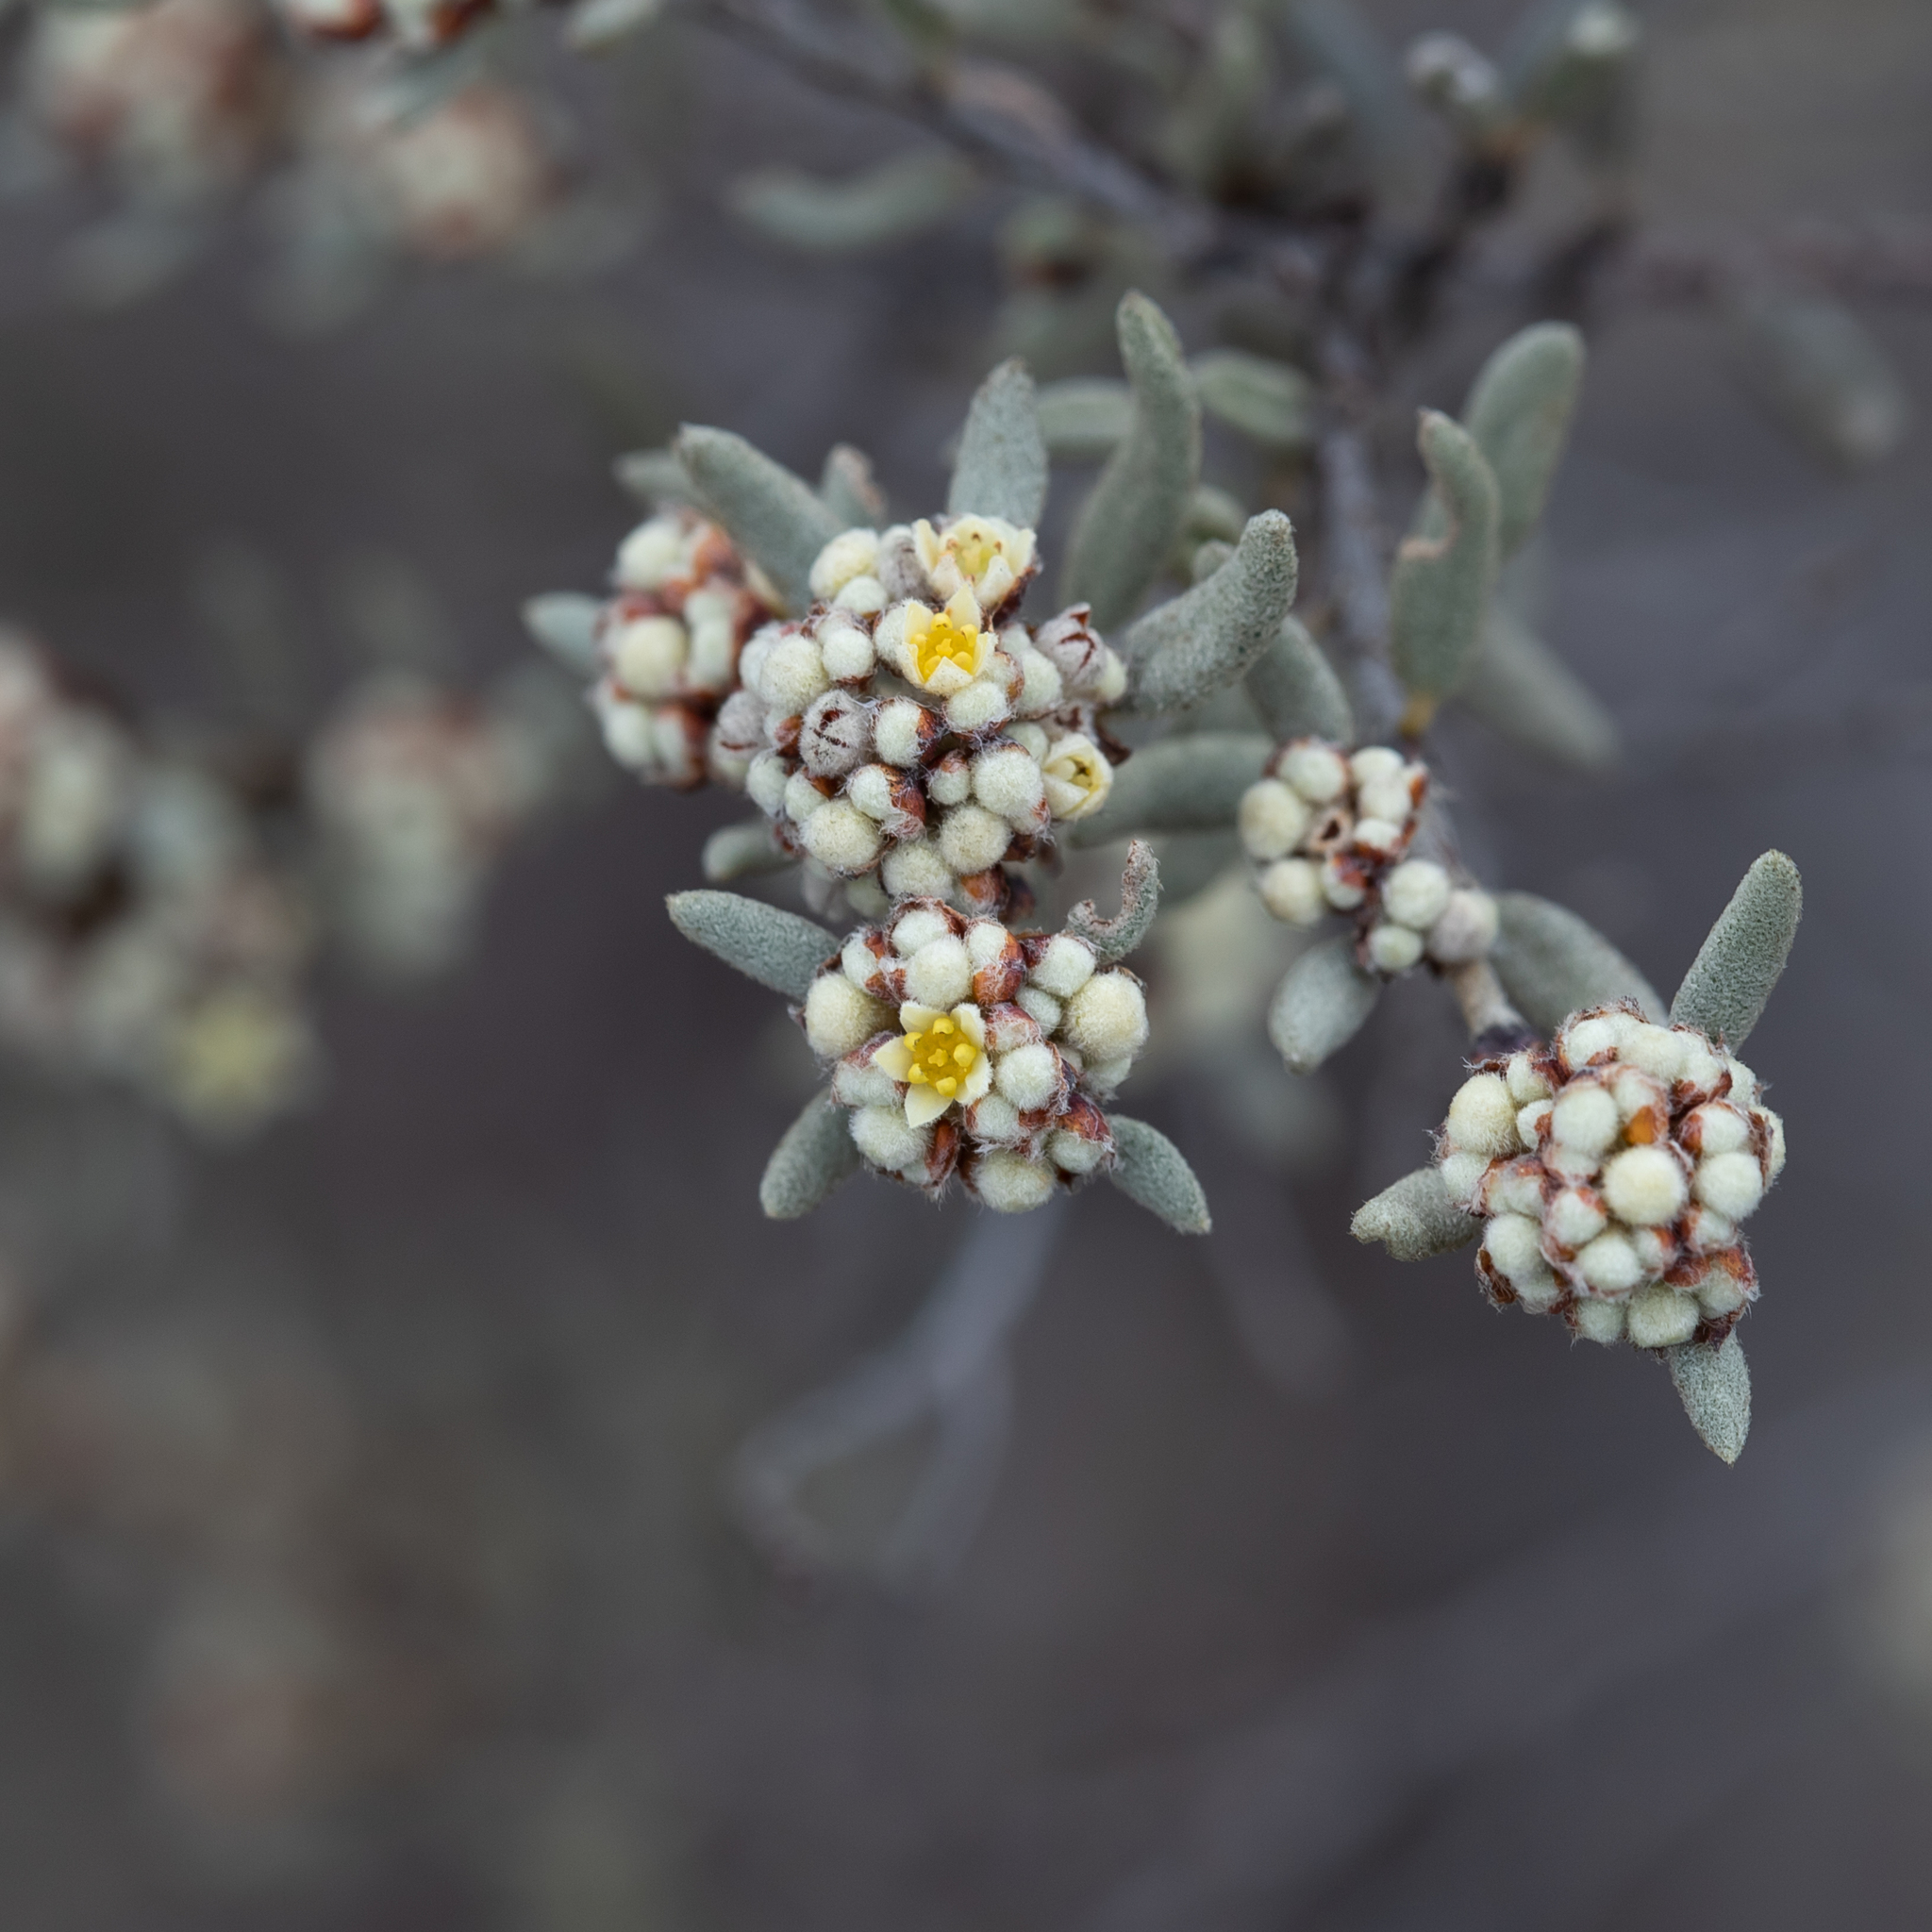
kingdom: Plantae
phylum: Tracheophyta
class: Magnoliopsida
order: Rosales
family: Rhamnaceae
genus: Spyridium
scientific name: Spyridium subochreatum
